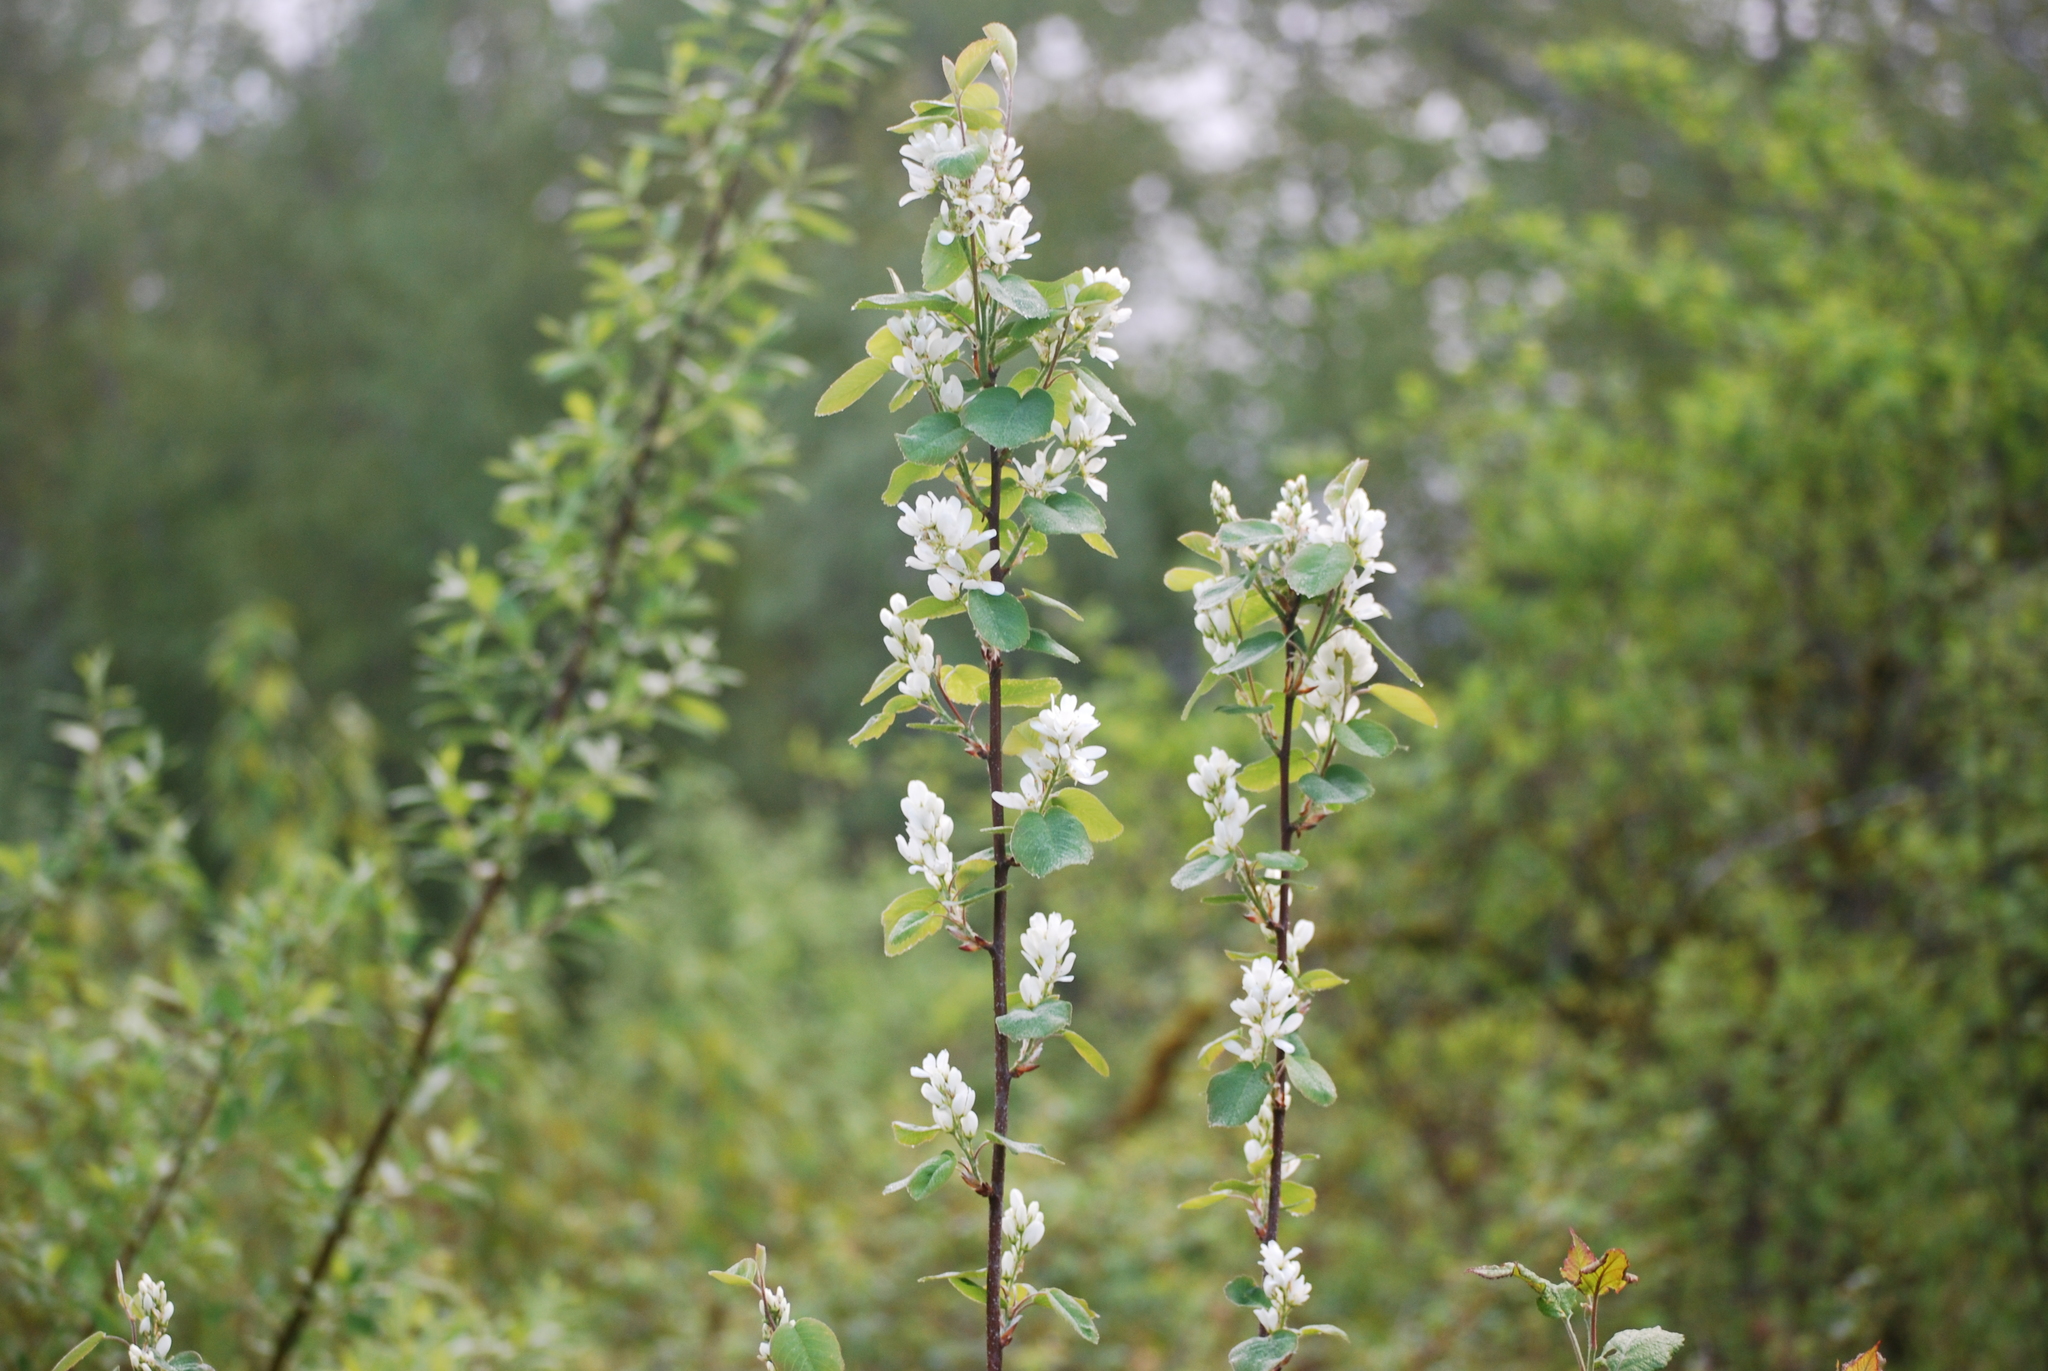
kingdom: Plantae
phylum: Tracheophyta
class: Magnoliopsida
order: Rosales
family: Rosaceae
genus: Amelanchier
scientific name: Amelanchier alnifolia
